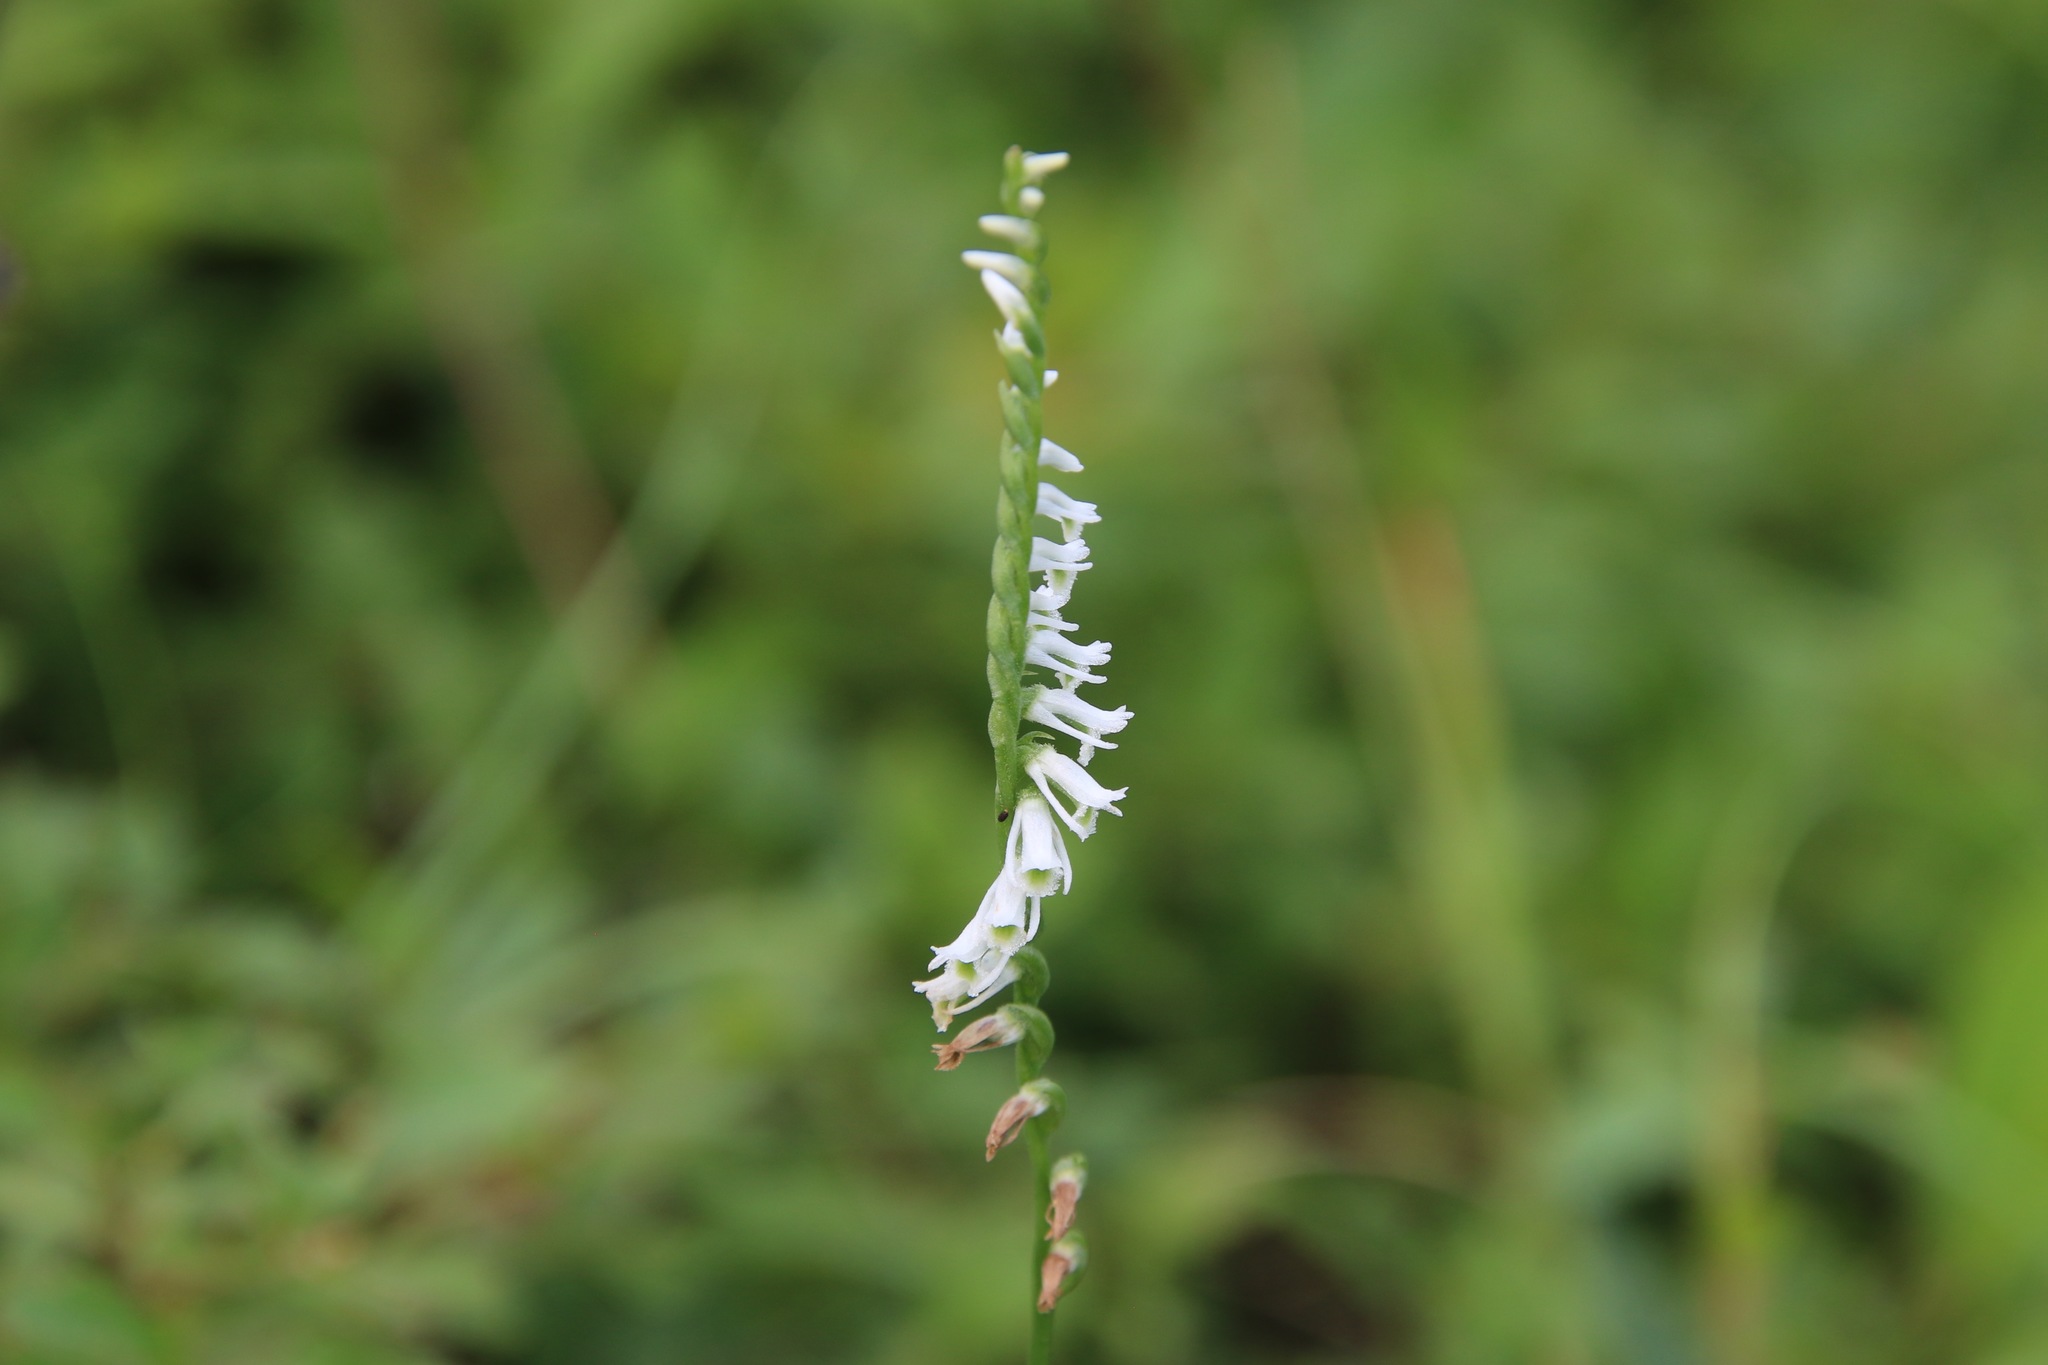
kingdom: Plantae
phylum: Tracheophyta
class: Liliopsida
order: Asparagales
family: Orchidaceae
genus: Spiranthes
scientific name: Spiranthes lacera
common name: Northern slender ladies'-tresses
